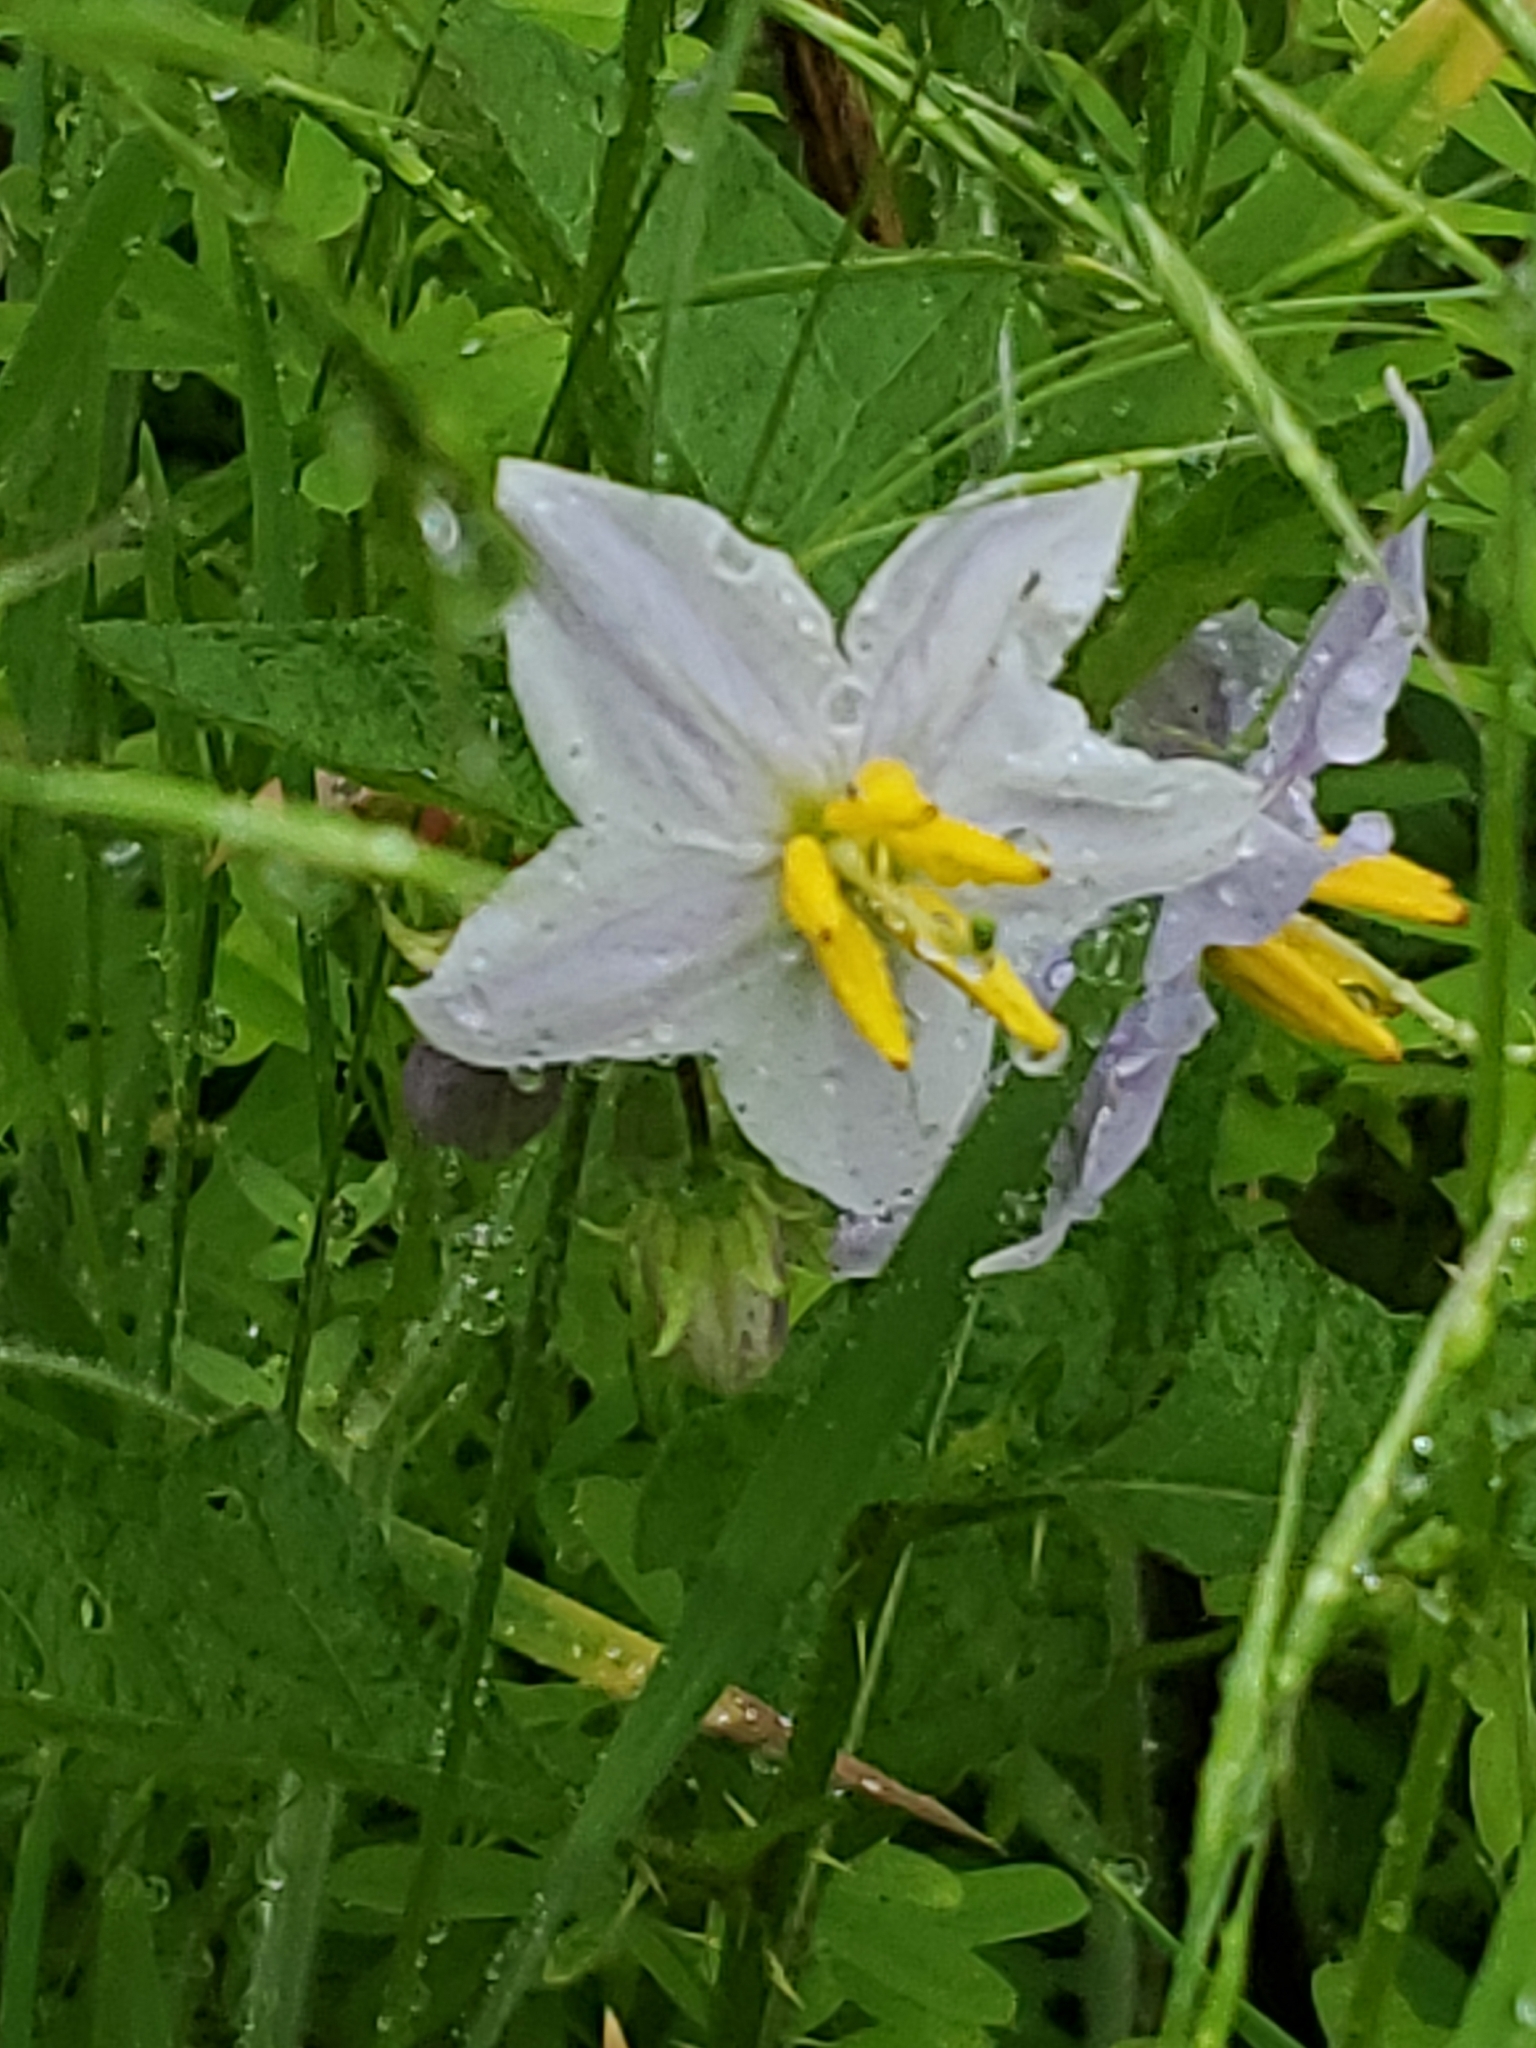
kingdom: Plantae
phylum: Tracheophyta
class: Magnoliopsida
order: Solanales
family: Solanaceae
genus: Solanum
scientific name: Solanum carolinense
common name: Horse-nettle
